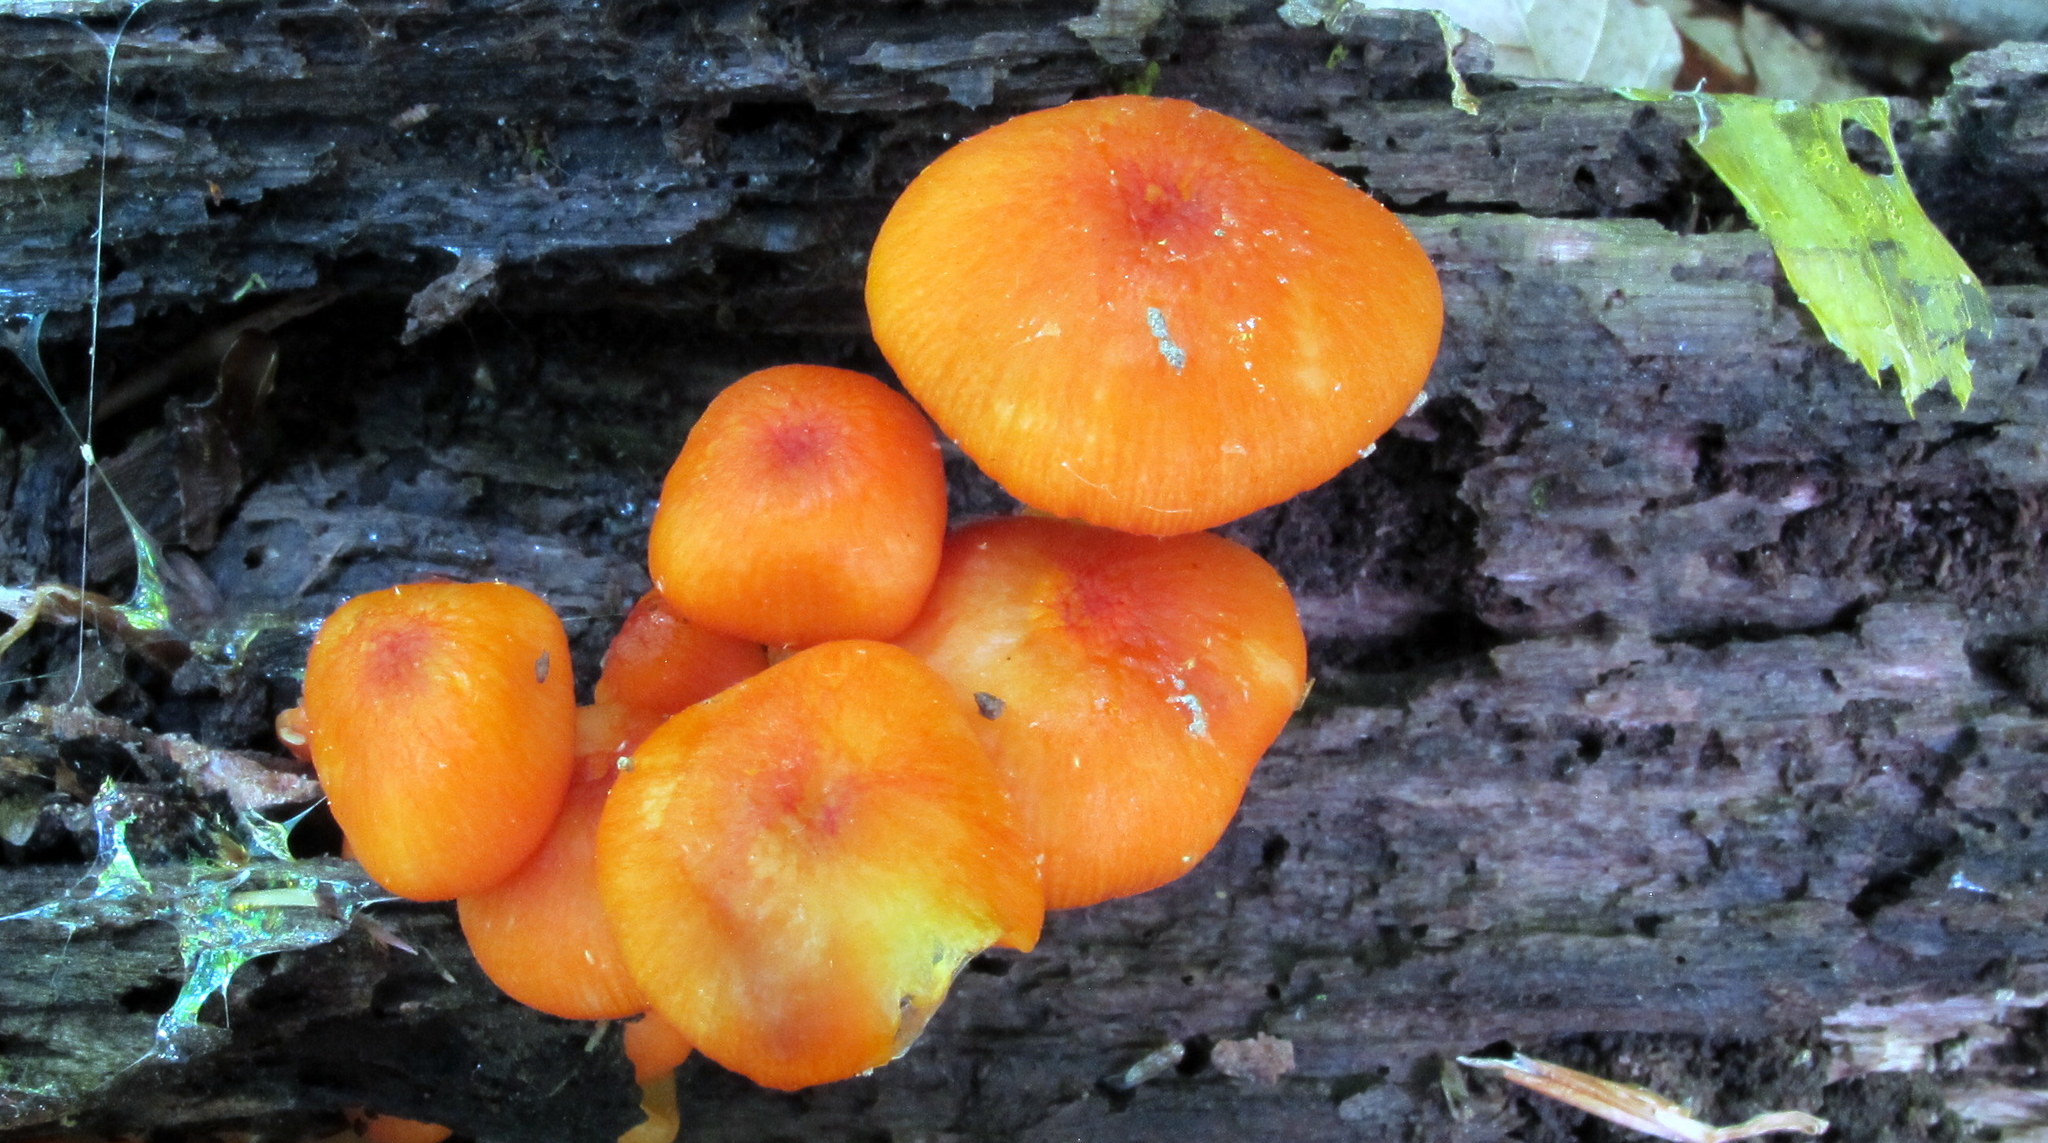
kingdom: Fungi
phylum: Basidiomycota
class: Agaricomycetes
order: Agaricales
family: Mycenaceae
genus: Mycena
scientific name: Mycena leaiana
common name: Orange mycena
